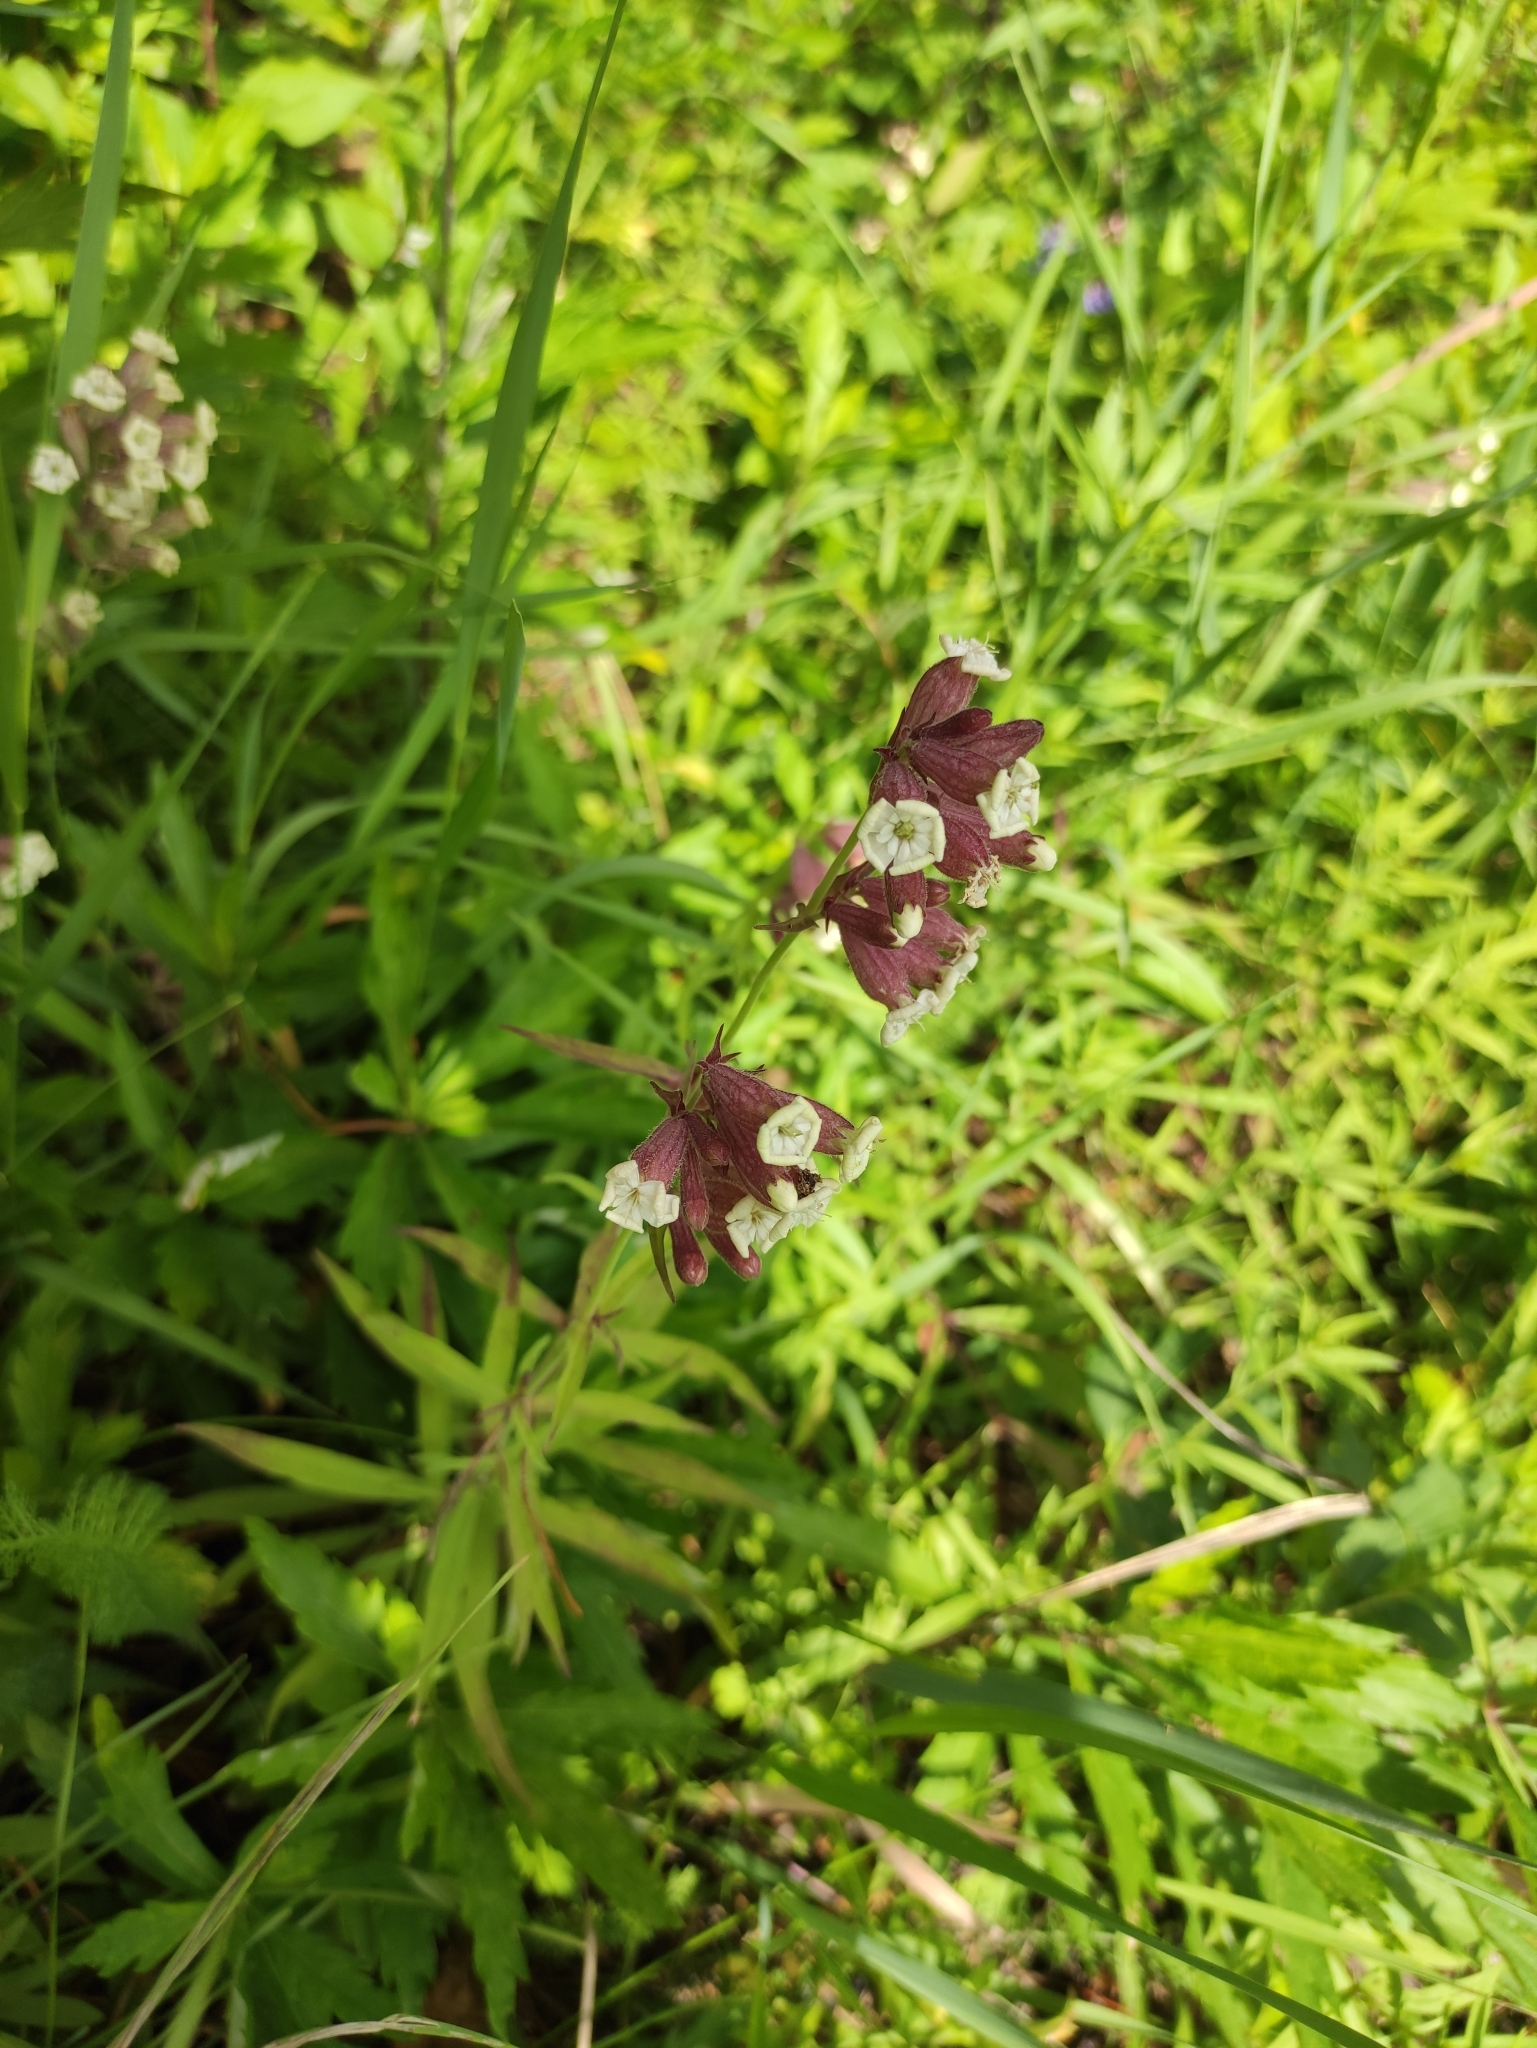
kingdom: Plantae
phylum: Tracheophyta
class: Magnoliopsida
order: Caryophyllales
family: Caryophyllaceae
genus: Silene
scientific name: Silene amoena
